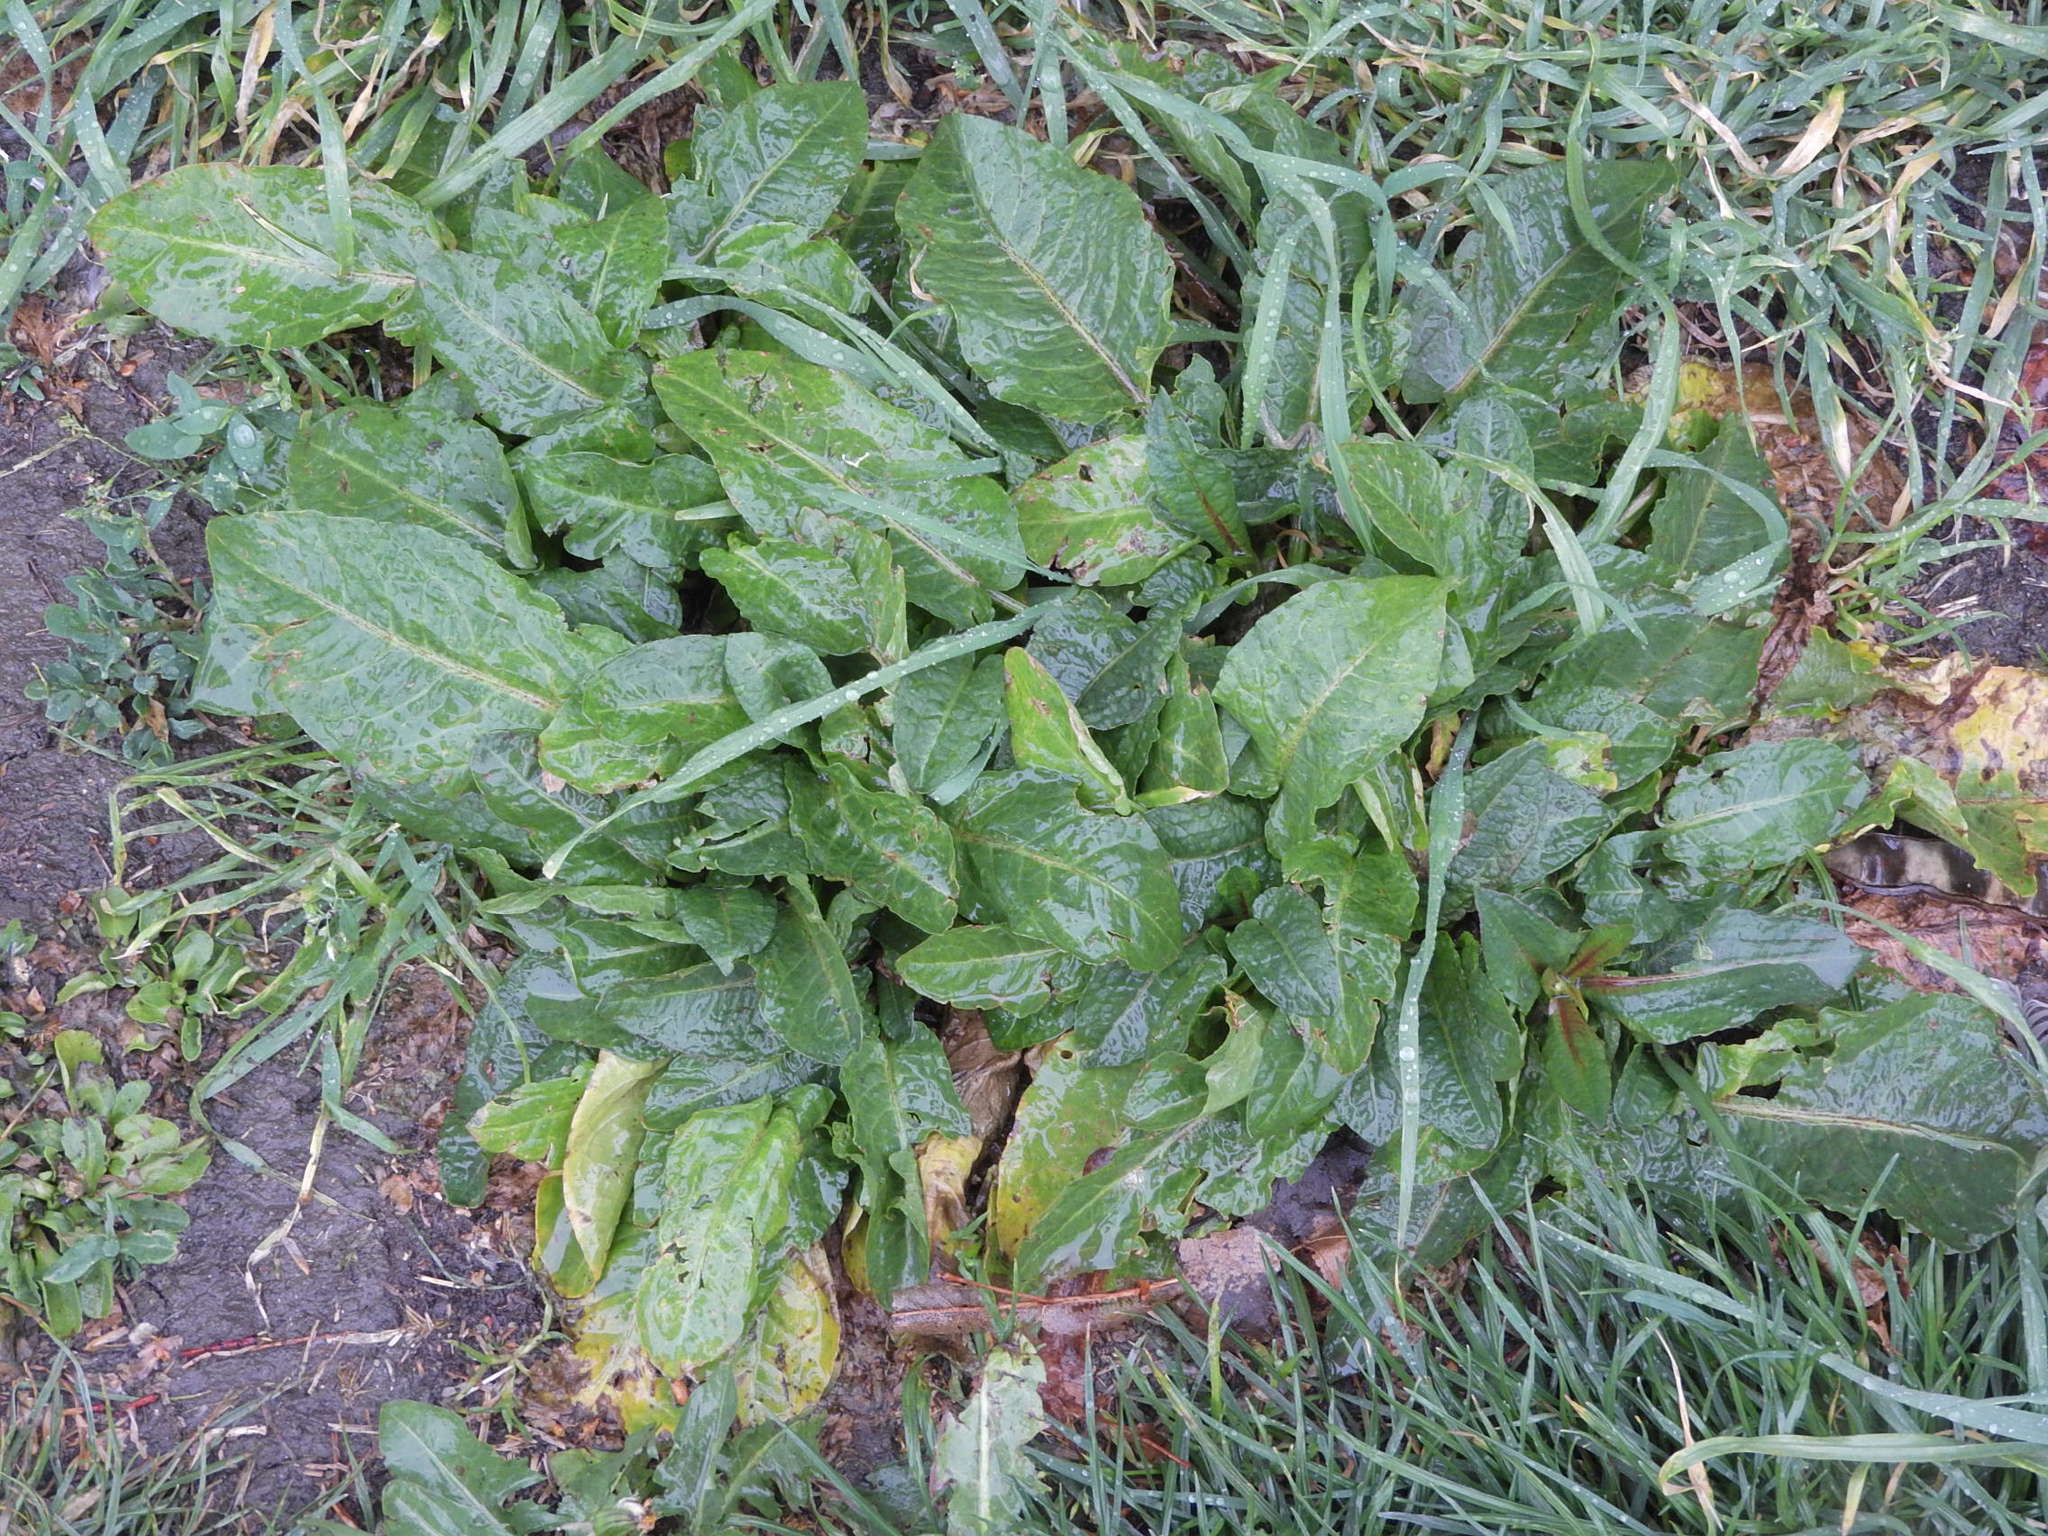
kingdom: Plantae
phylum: Tracheophyta
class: Magnoliopsida
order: Caryophyllales
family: Polygonaceae
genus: Rumex
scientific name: Rumex obtusifolius
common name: Bitter dock
